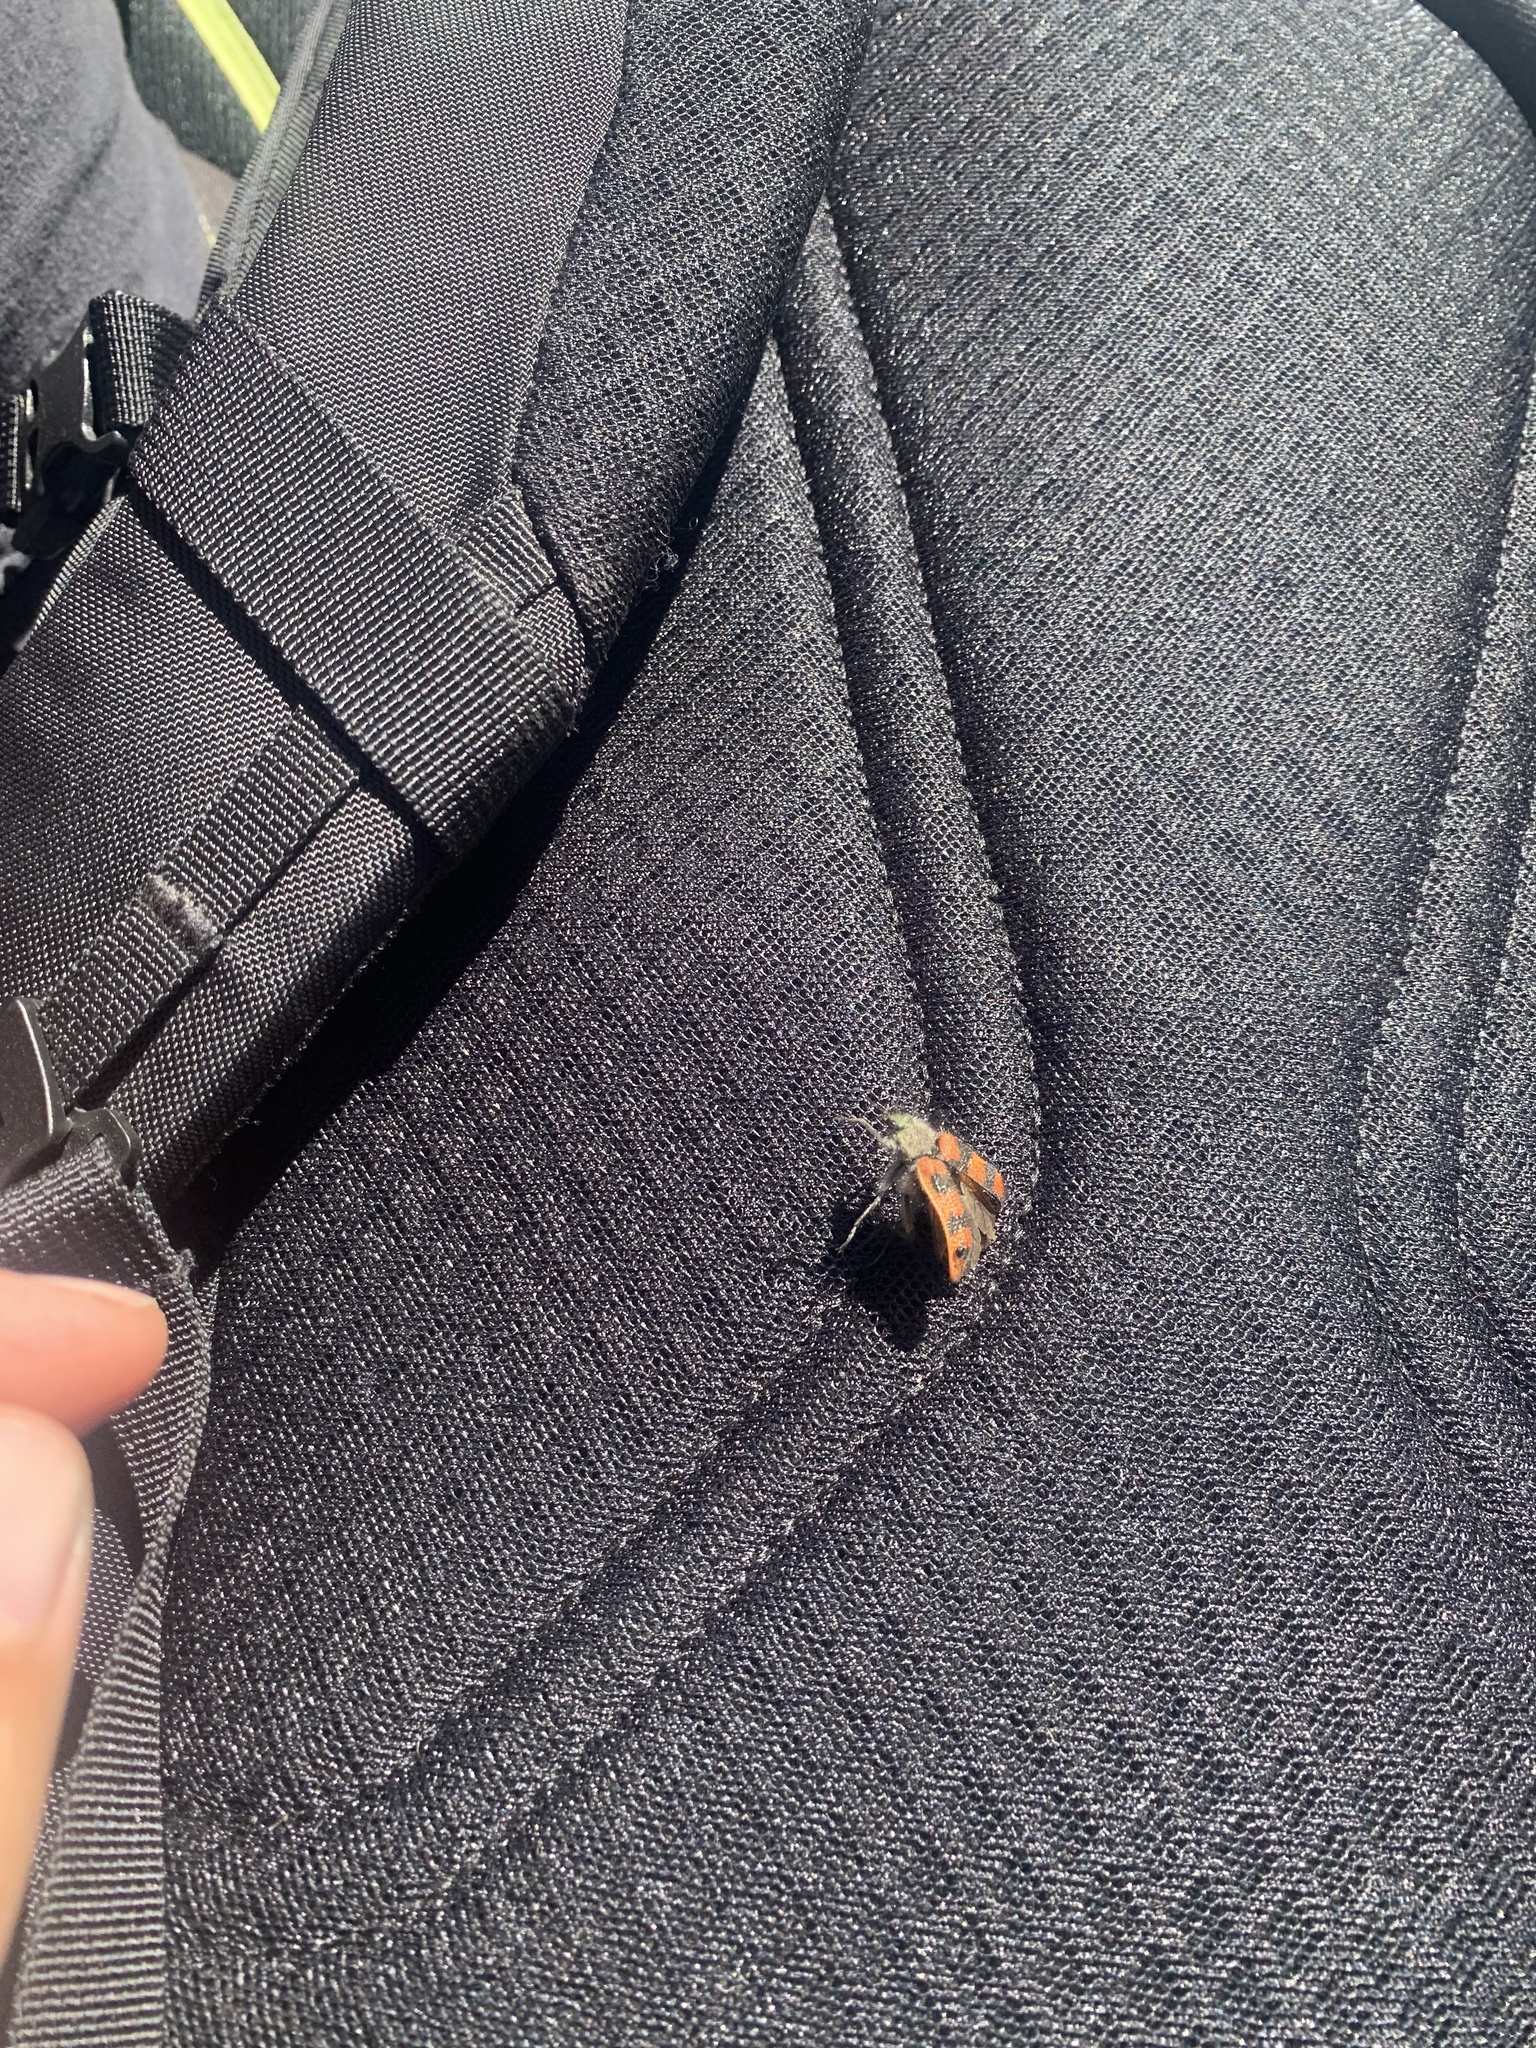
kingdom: Animalia
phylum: Arthropoda
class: Insecta
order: Coleoptera
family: Melyridae
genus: Astylus
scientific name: Astylus
